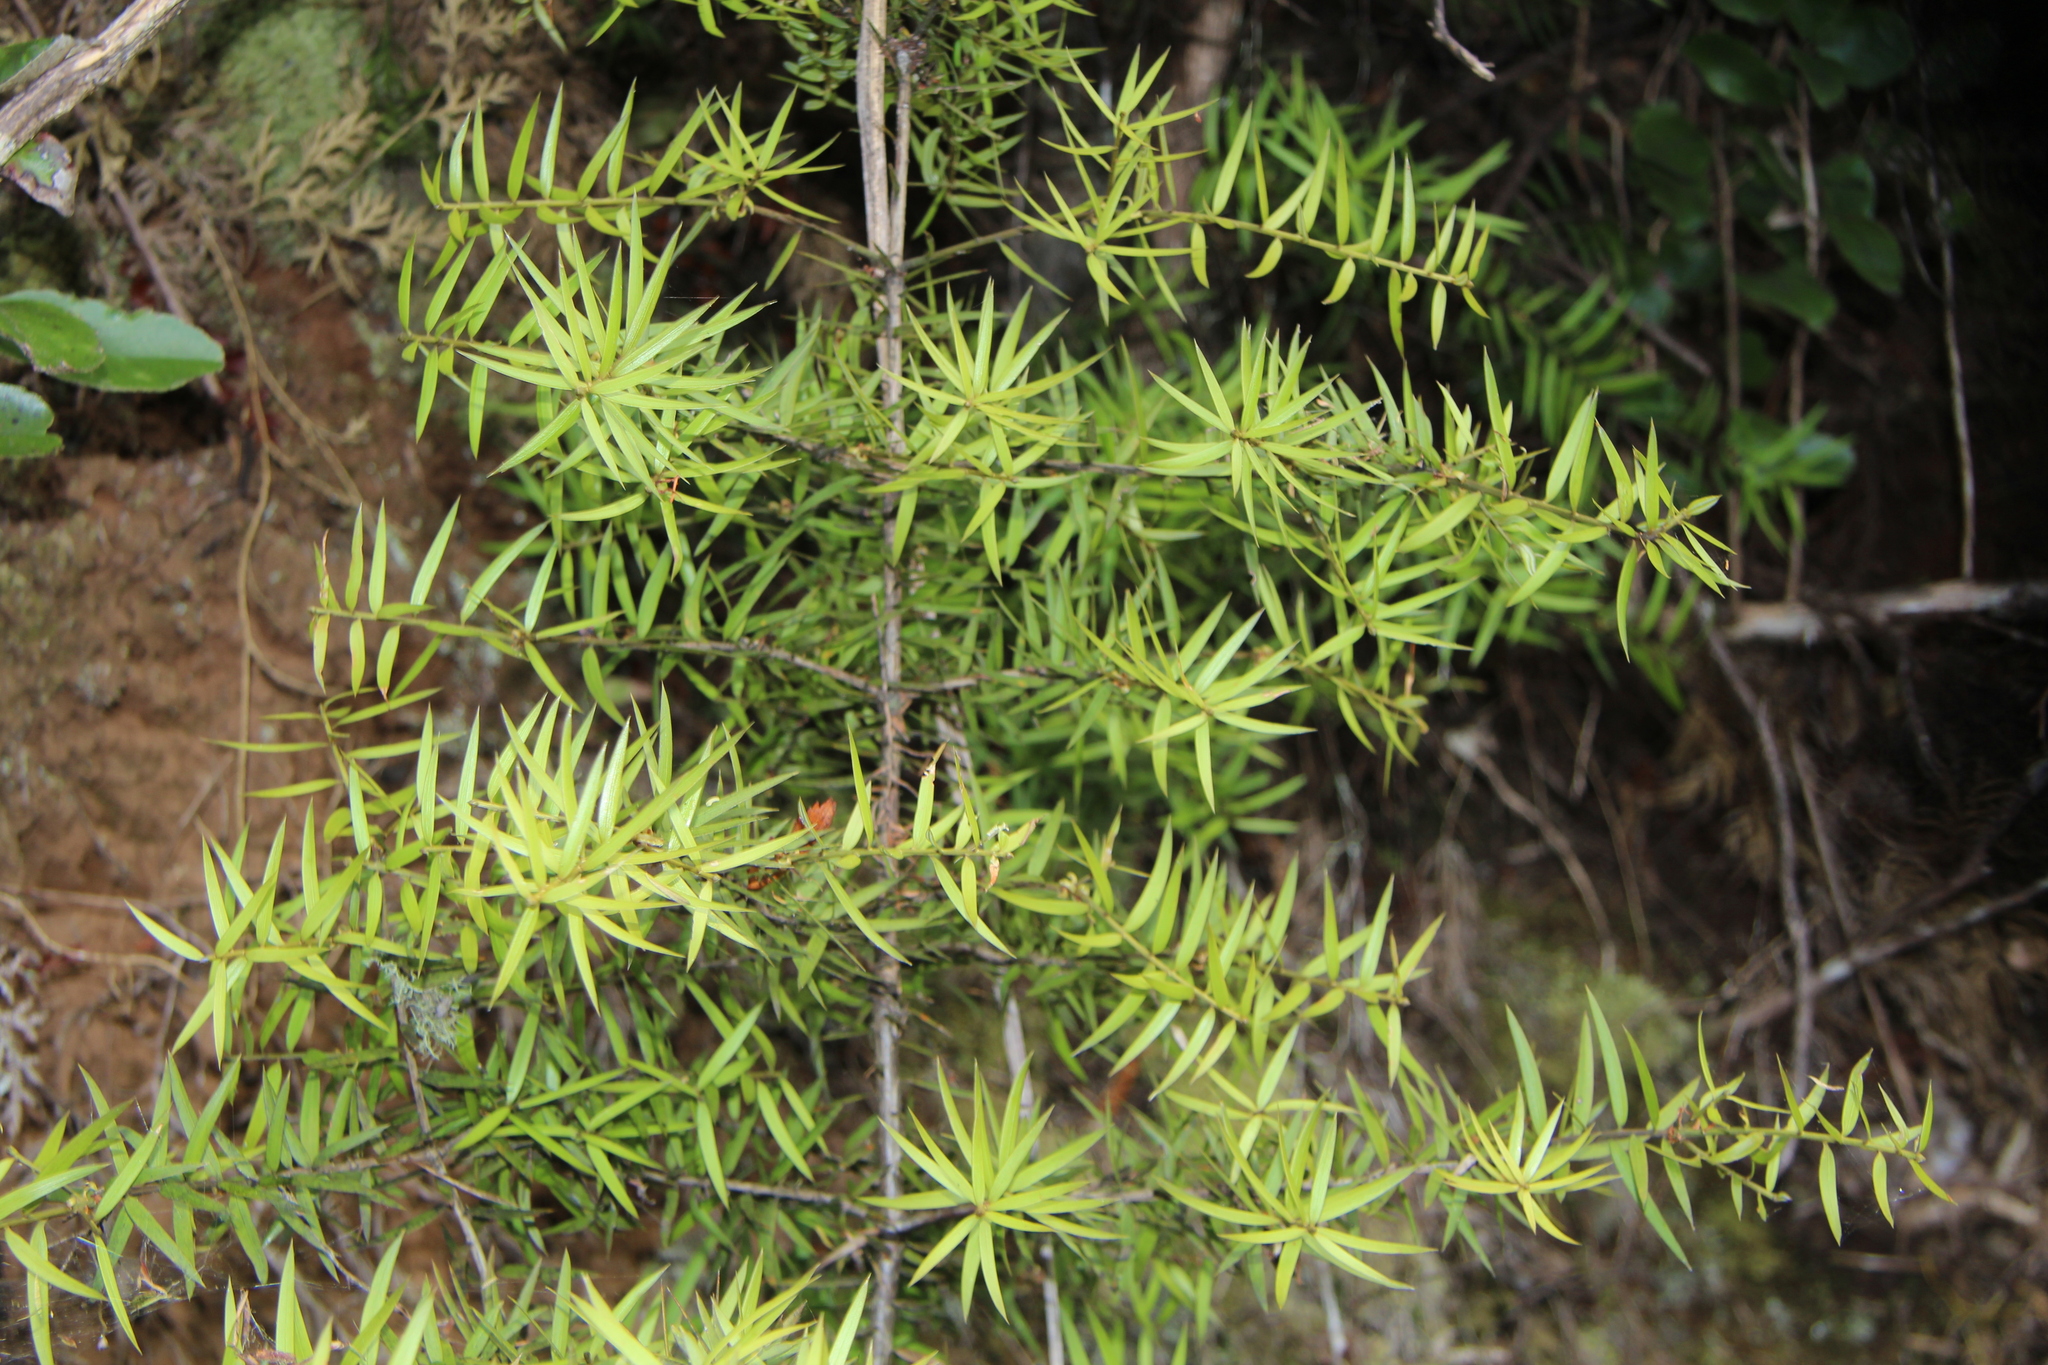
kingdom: Plantae
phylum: Tracheophyta
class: Pinopsida
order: Pinales
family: Podocarpaceae
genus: Podocarpus
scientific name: Podocarpus totara
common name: Totara
